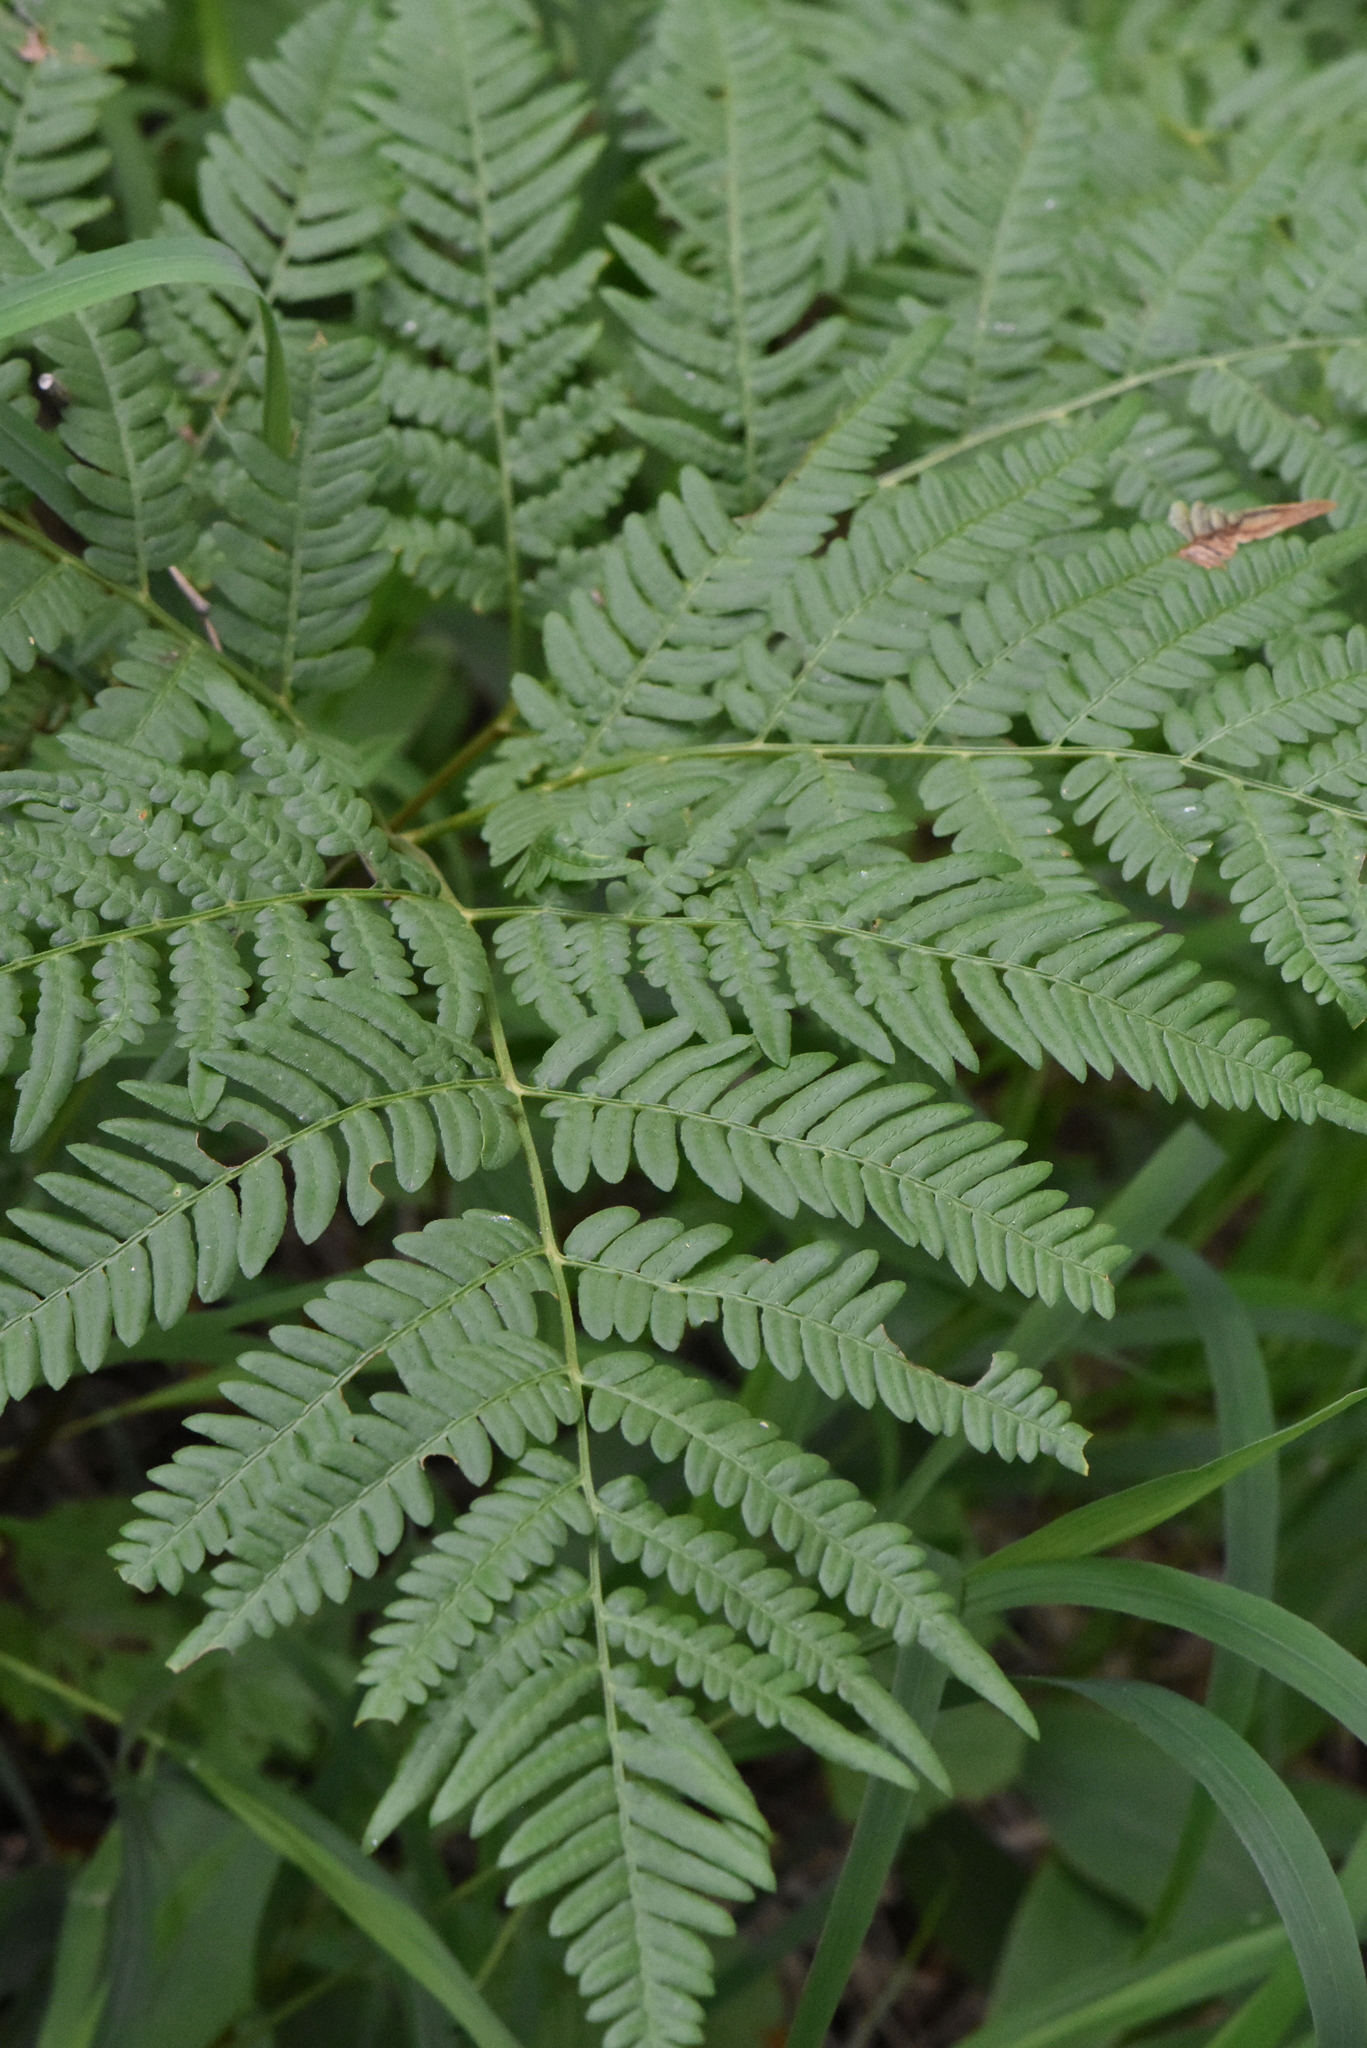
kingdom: Plantae
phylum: Tracheophyta
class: Polypodiopsida
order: Polypodiales
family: Dennstaedtiaceae
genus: Pteridium
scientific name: Pteridium aquilinum
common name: Bracken
